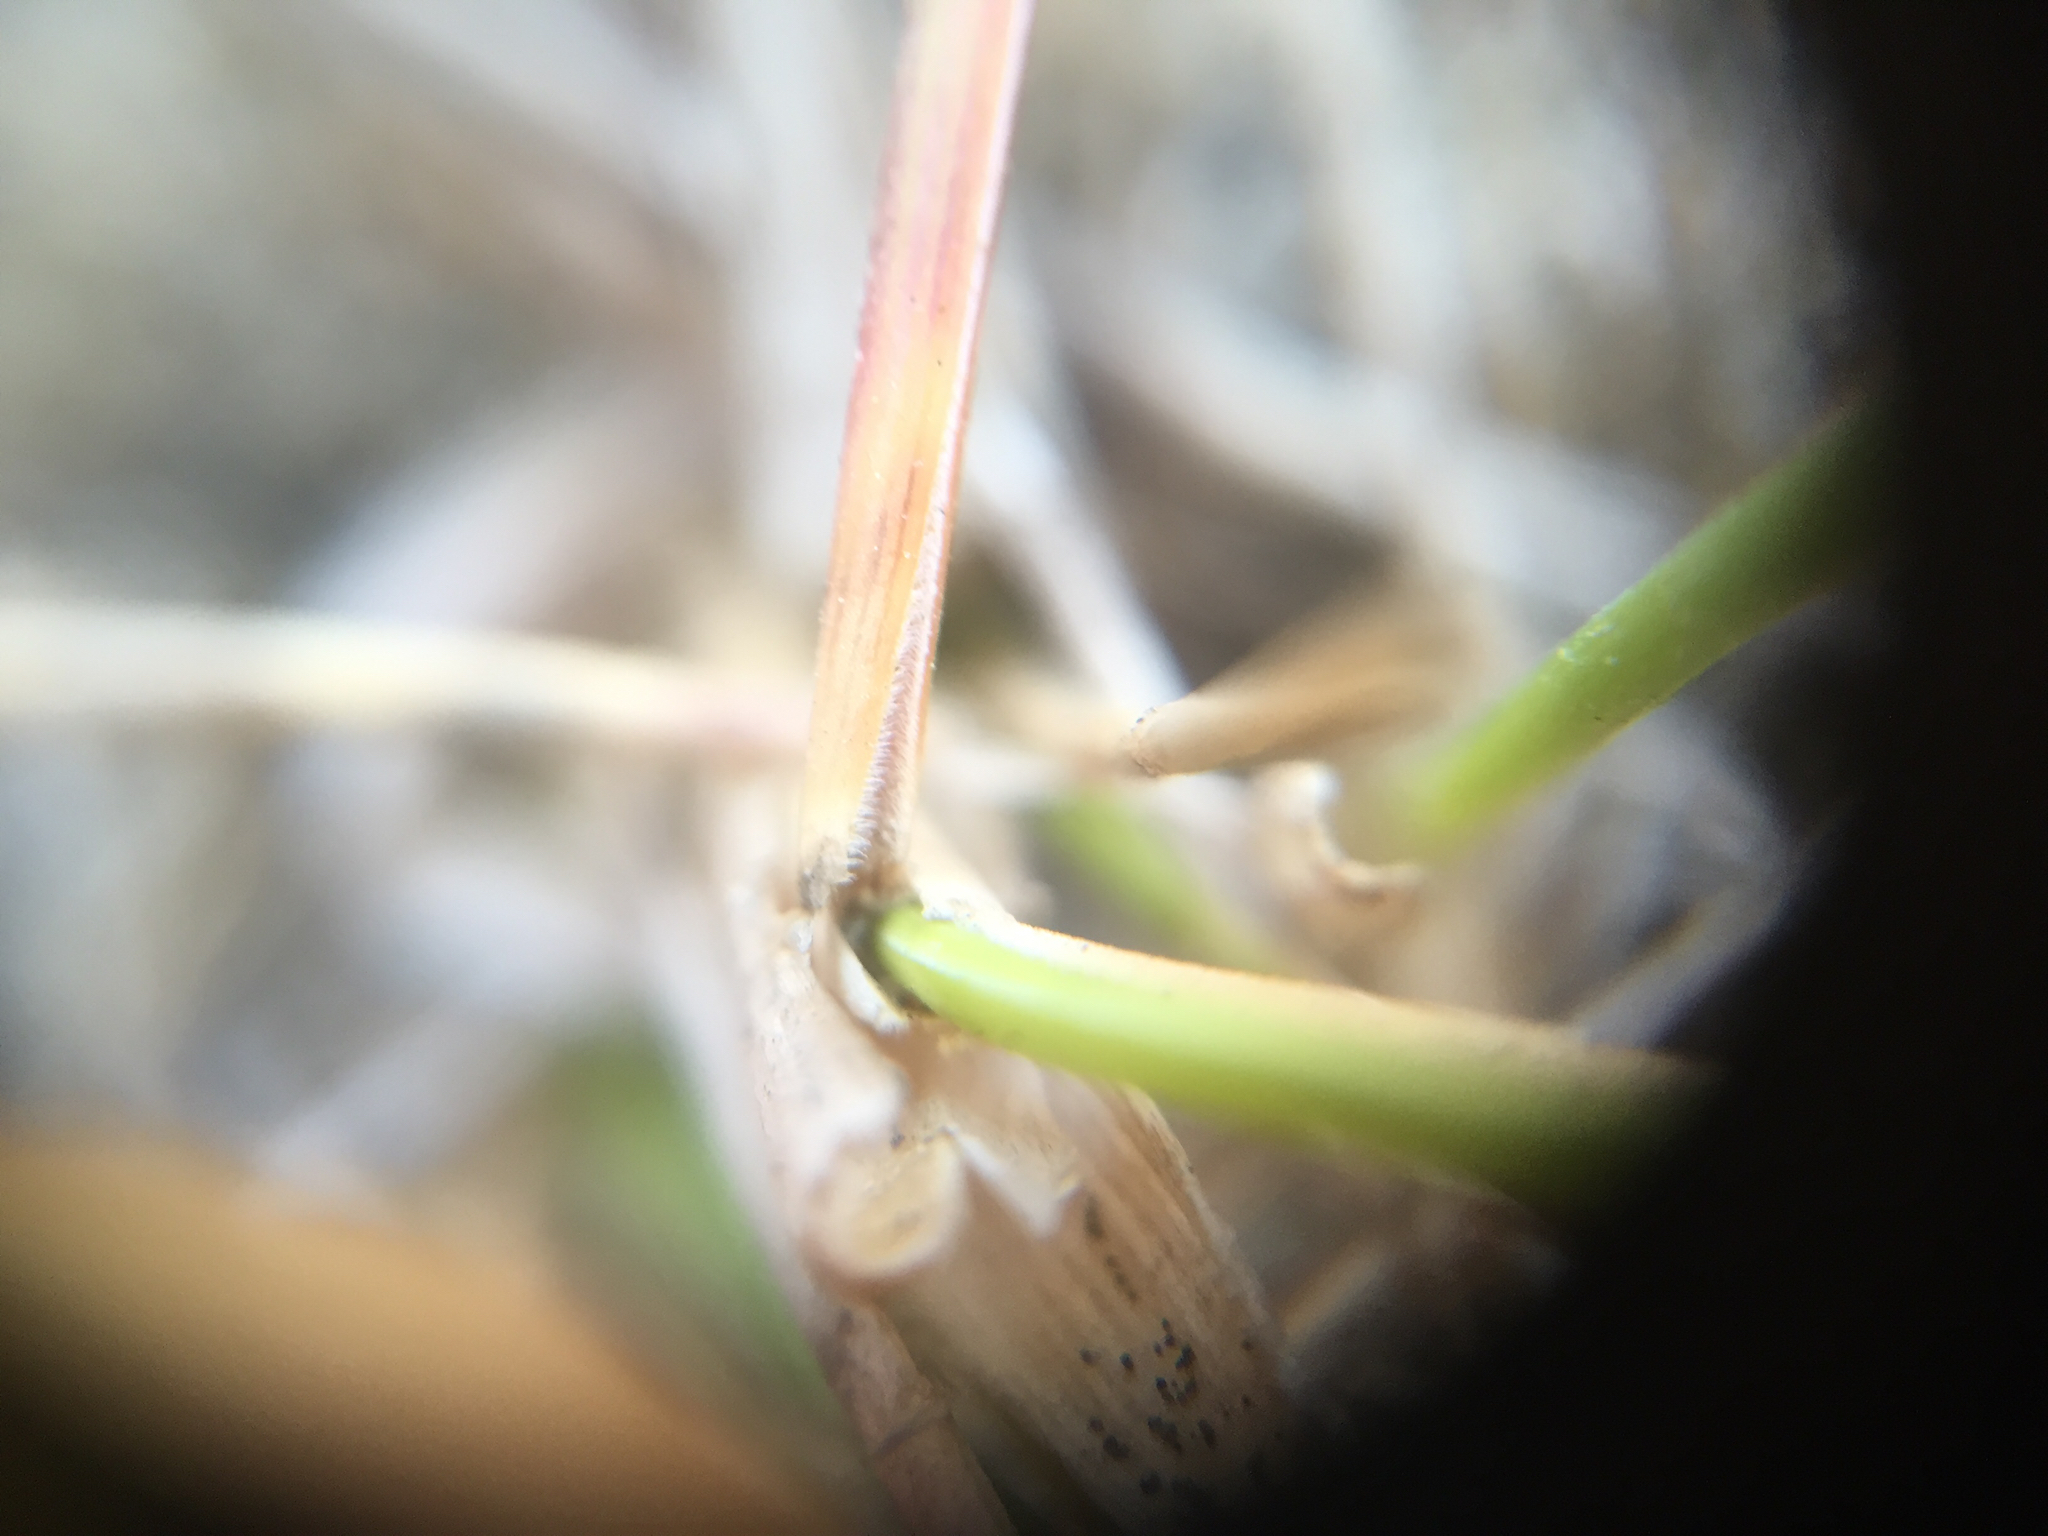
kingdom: Plantae
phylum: Tracheophyta
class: Liliopsida
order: Poales
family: Poaceae
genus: Poa
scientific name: Poa douglasii
